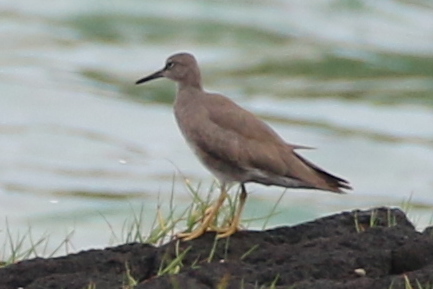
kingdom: Animalia
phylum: Chordata
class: Aves
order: Charadriiformes
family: Scolopacidae
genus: Tringa
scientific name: Tringa incana
